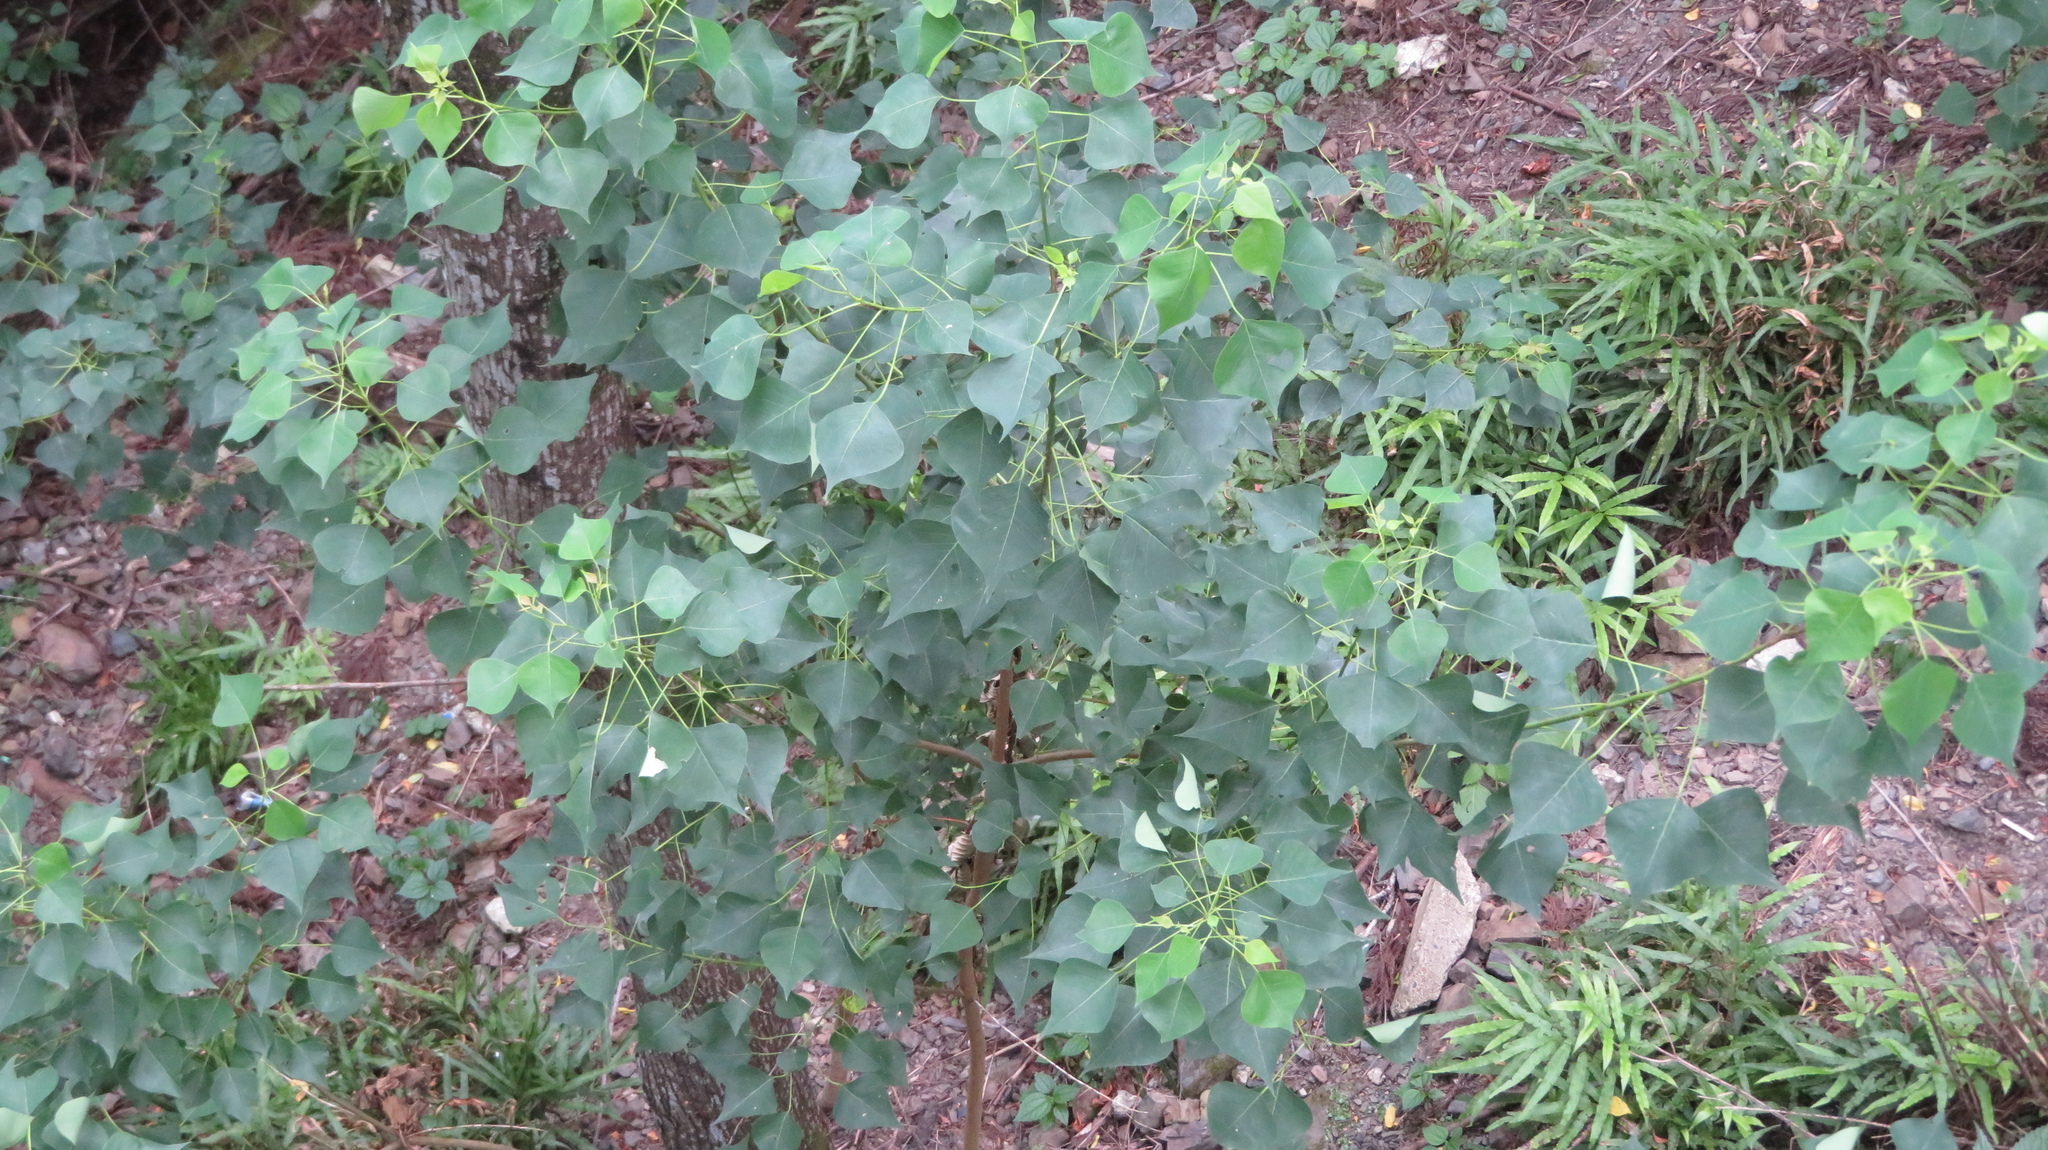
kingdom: Plantae
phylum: Tracheophyta
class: Magnoliopsida
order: Malpighiales
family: Euphorbiaceae
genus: Triadica
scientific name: Triadica sebifera
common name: Chinese tallow
